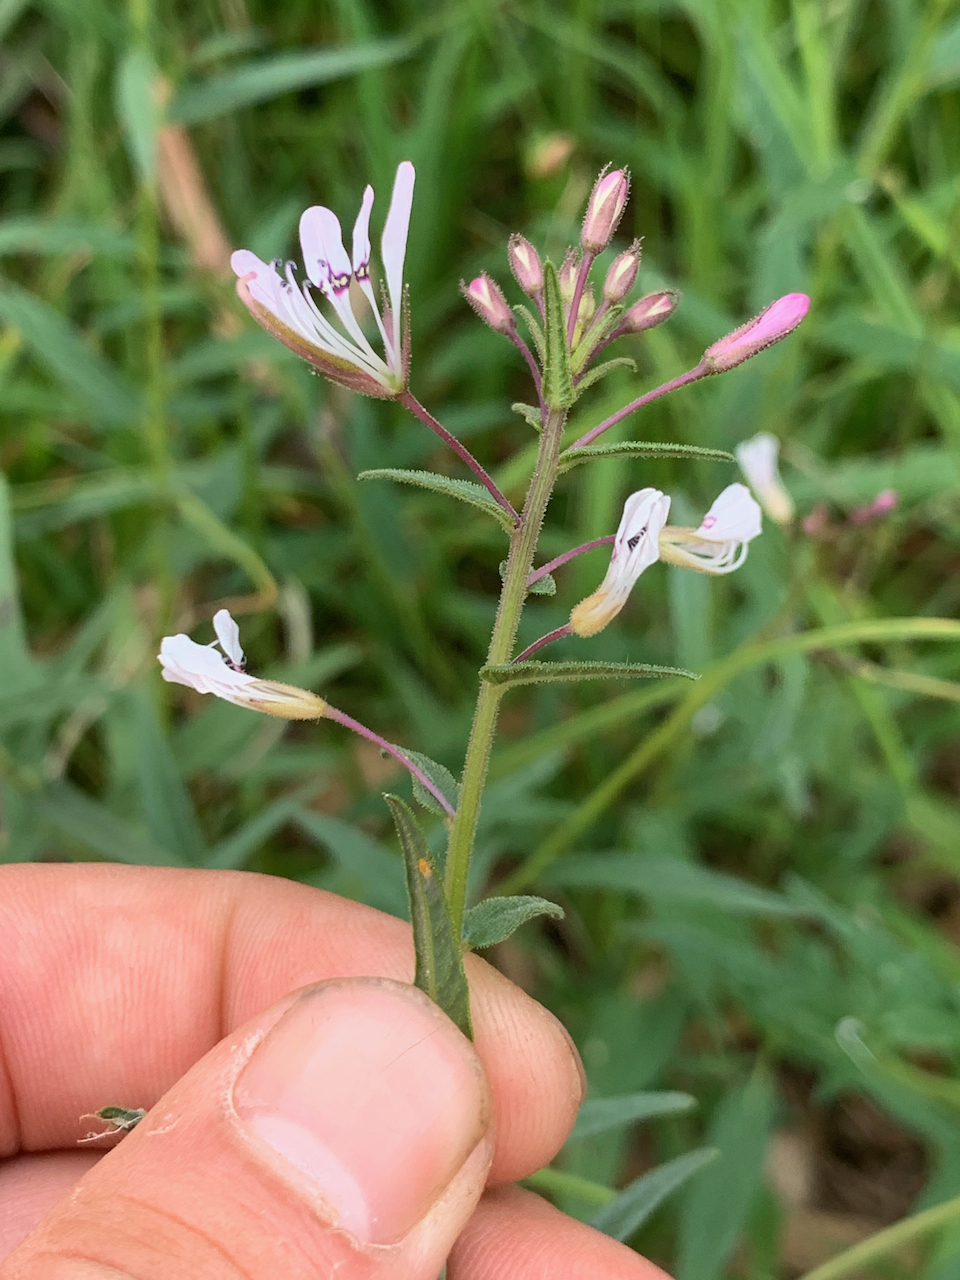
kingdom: Plantae
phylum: Tracheophyta
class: Magnoliopsida
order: Brassicales
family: Cleomaceae
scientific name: Cleomaceae
